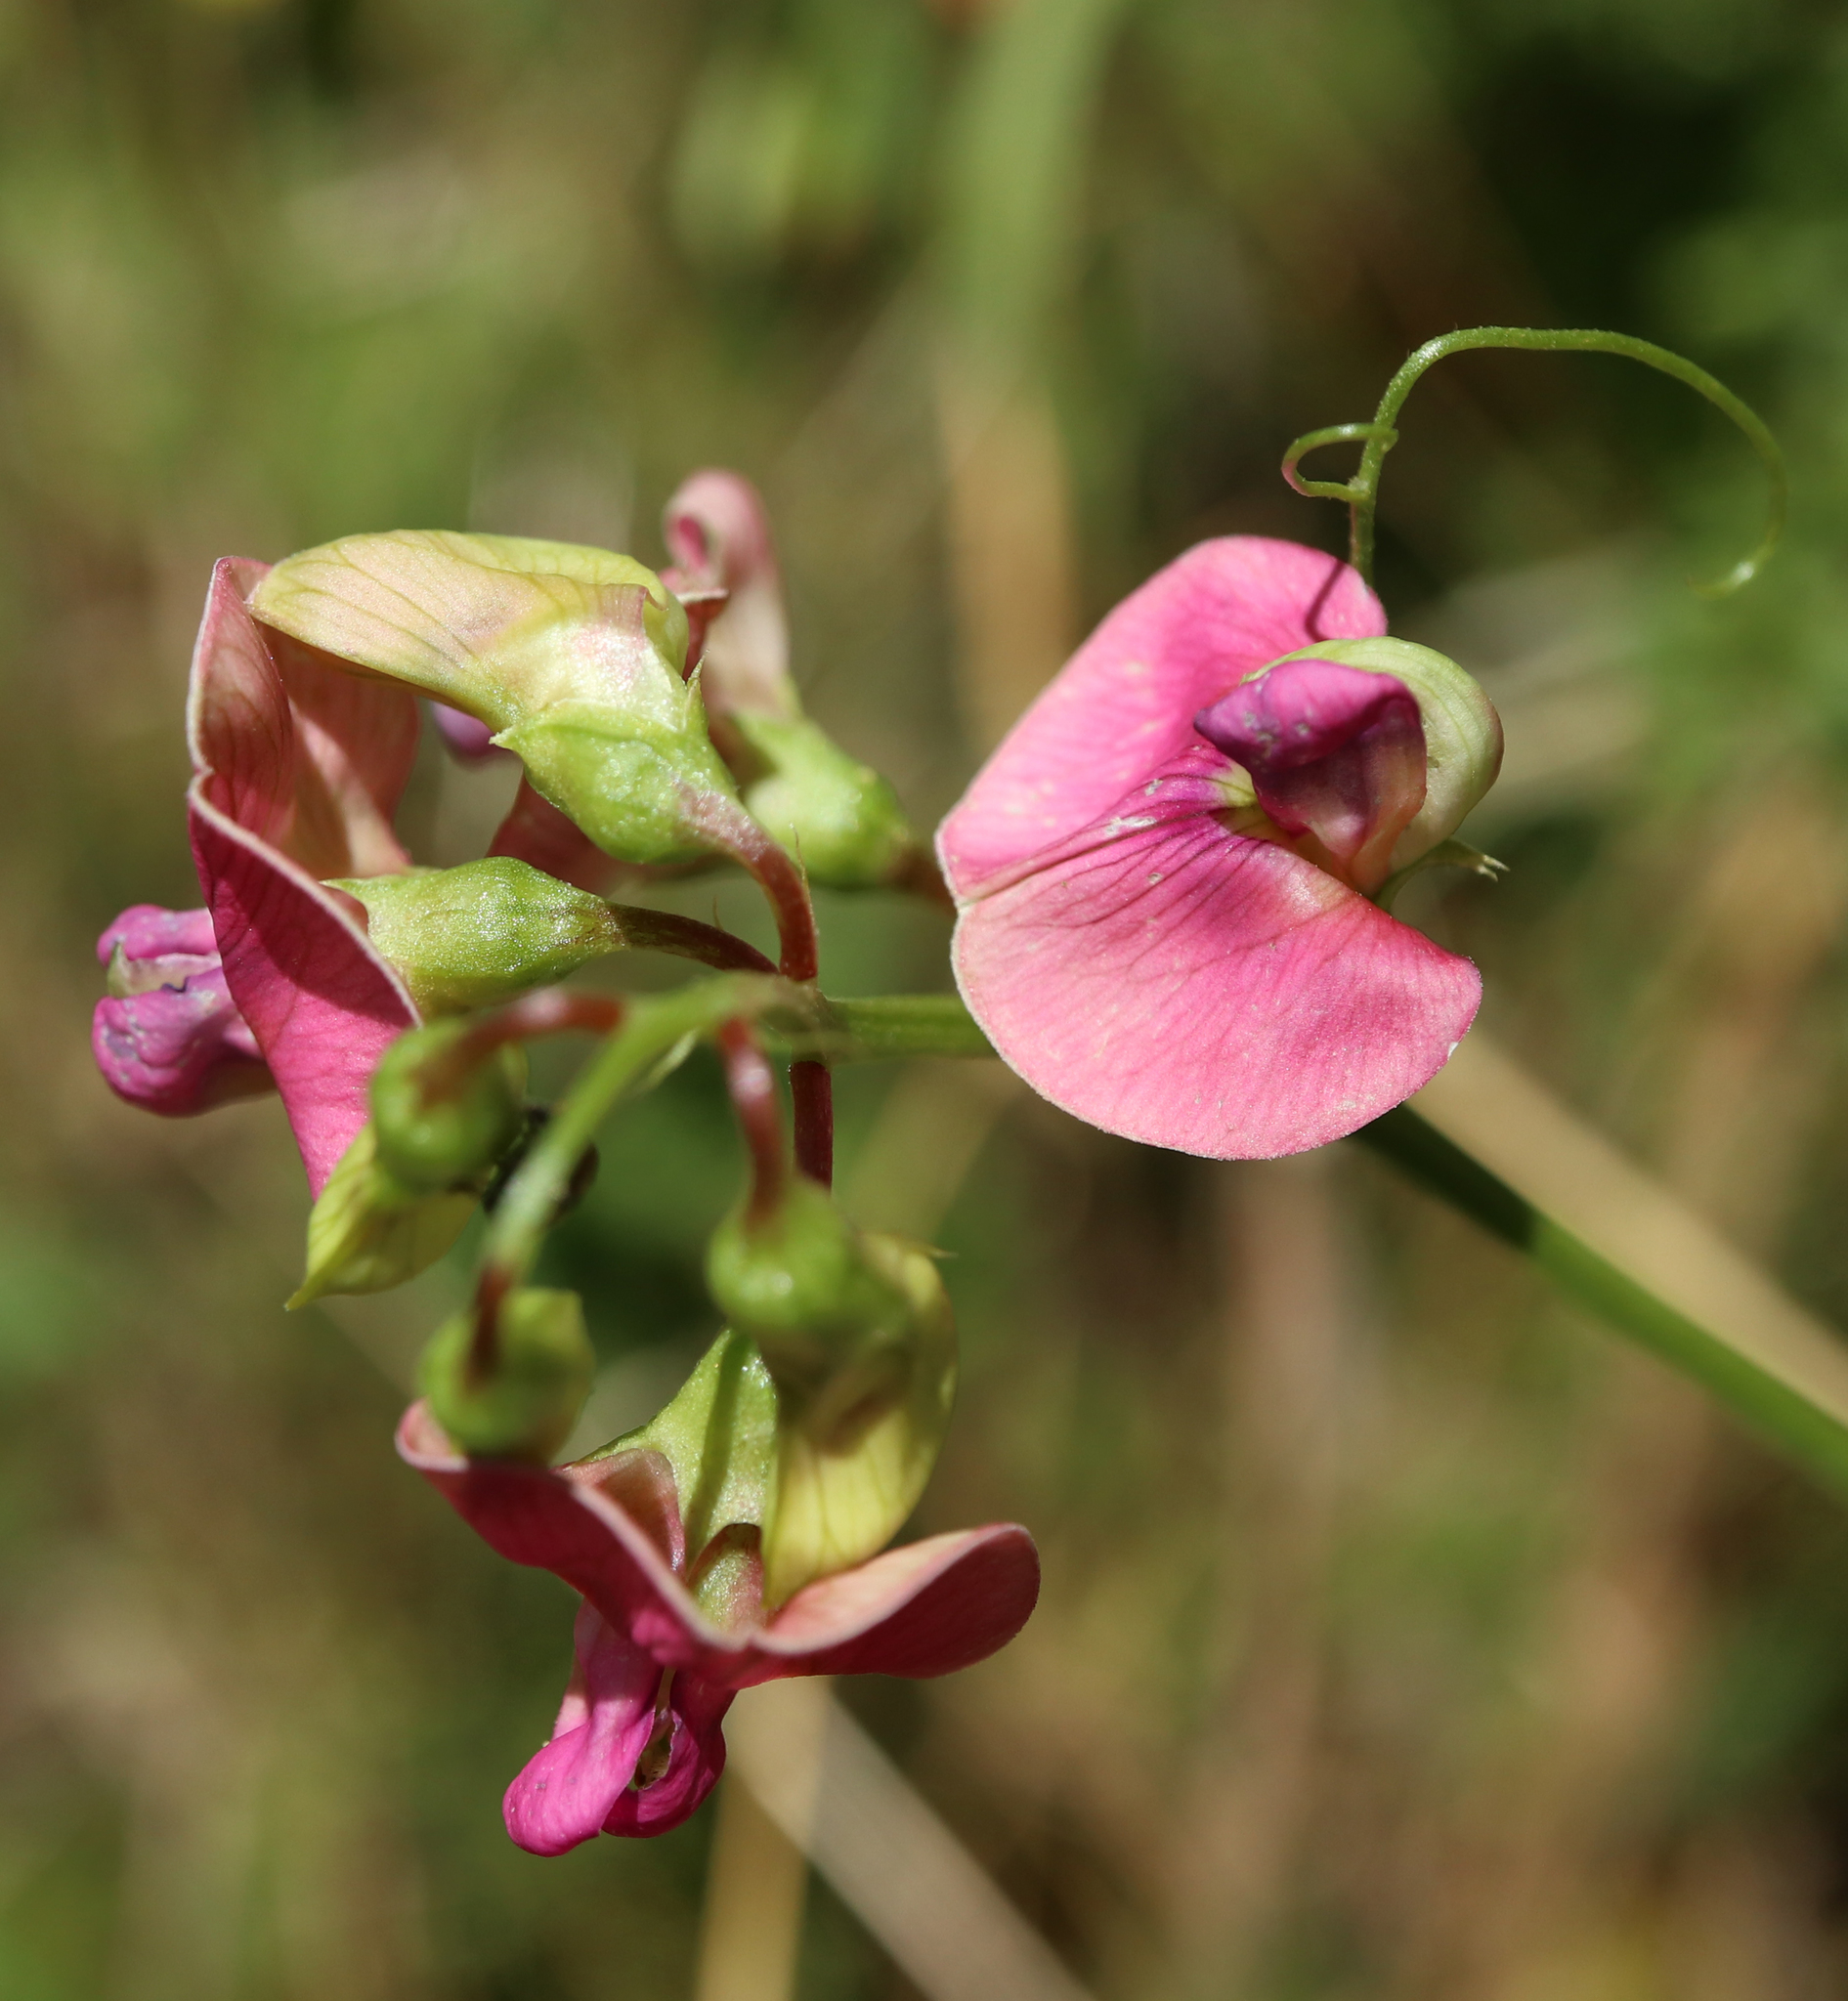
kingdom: Plantae
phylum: Tracheophyta
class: Magnoliopsida
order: Fabales
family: Fabaceae
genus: Lathyrus
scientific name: Lathyrus sylvestris
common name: Flat pea
